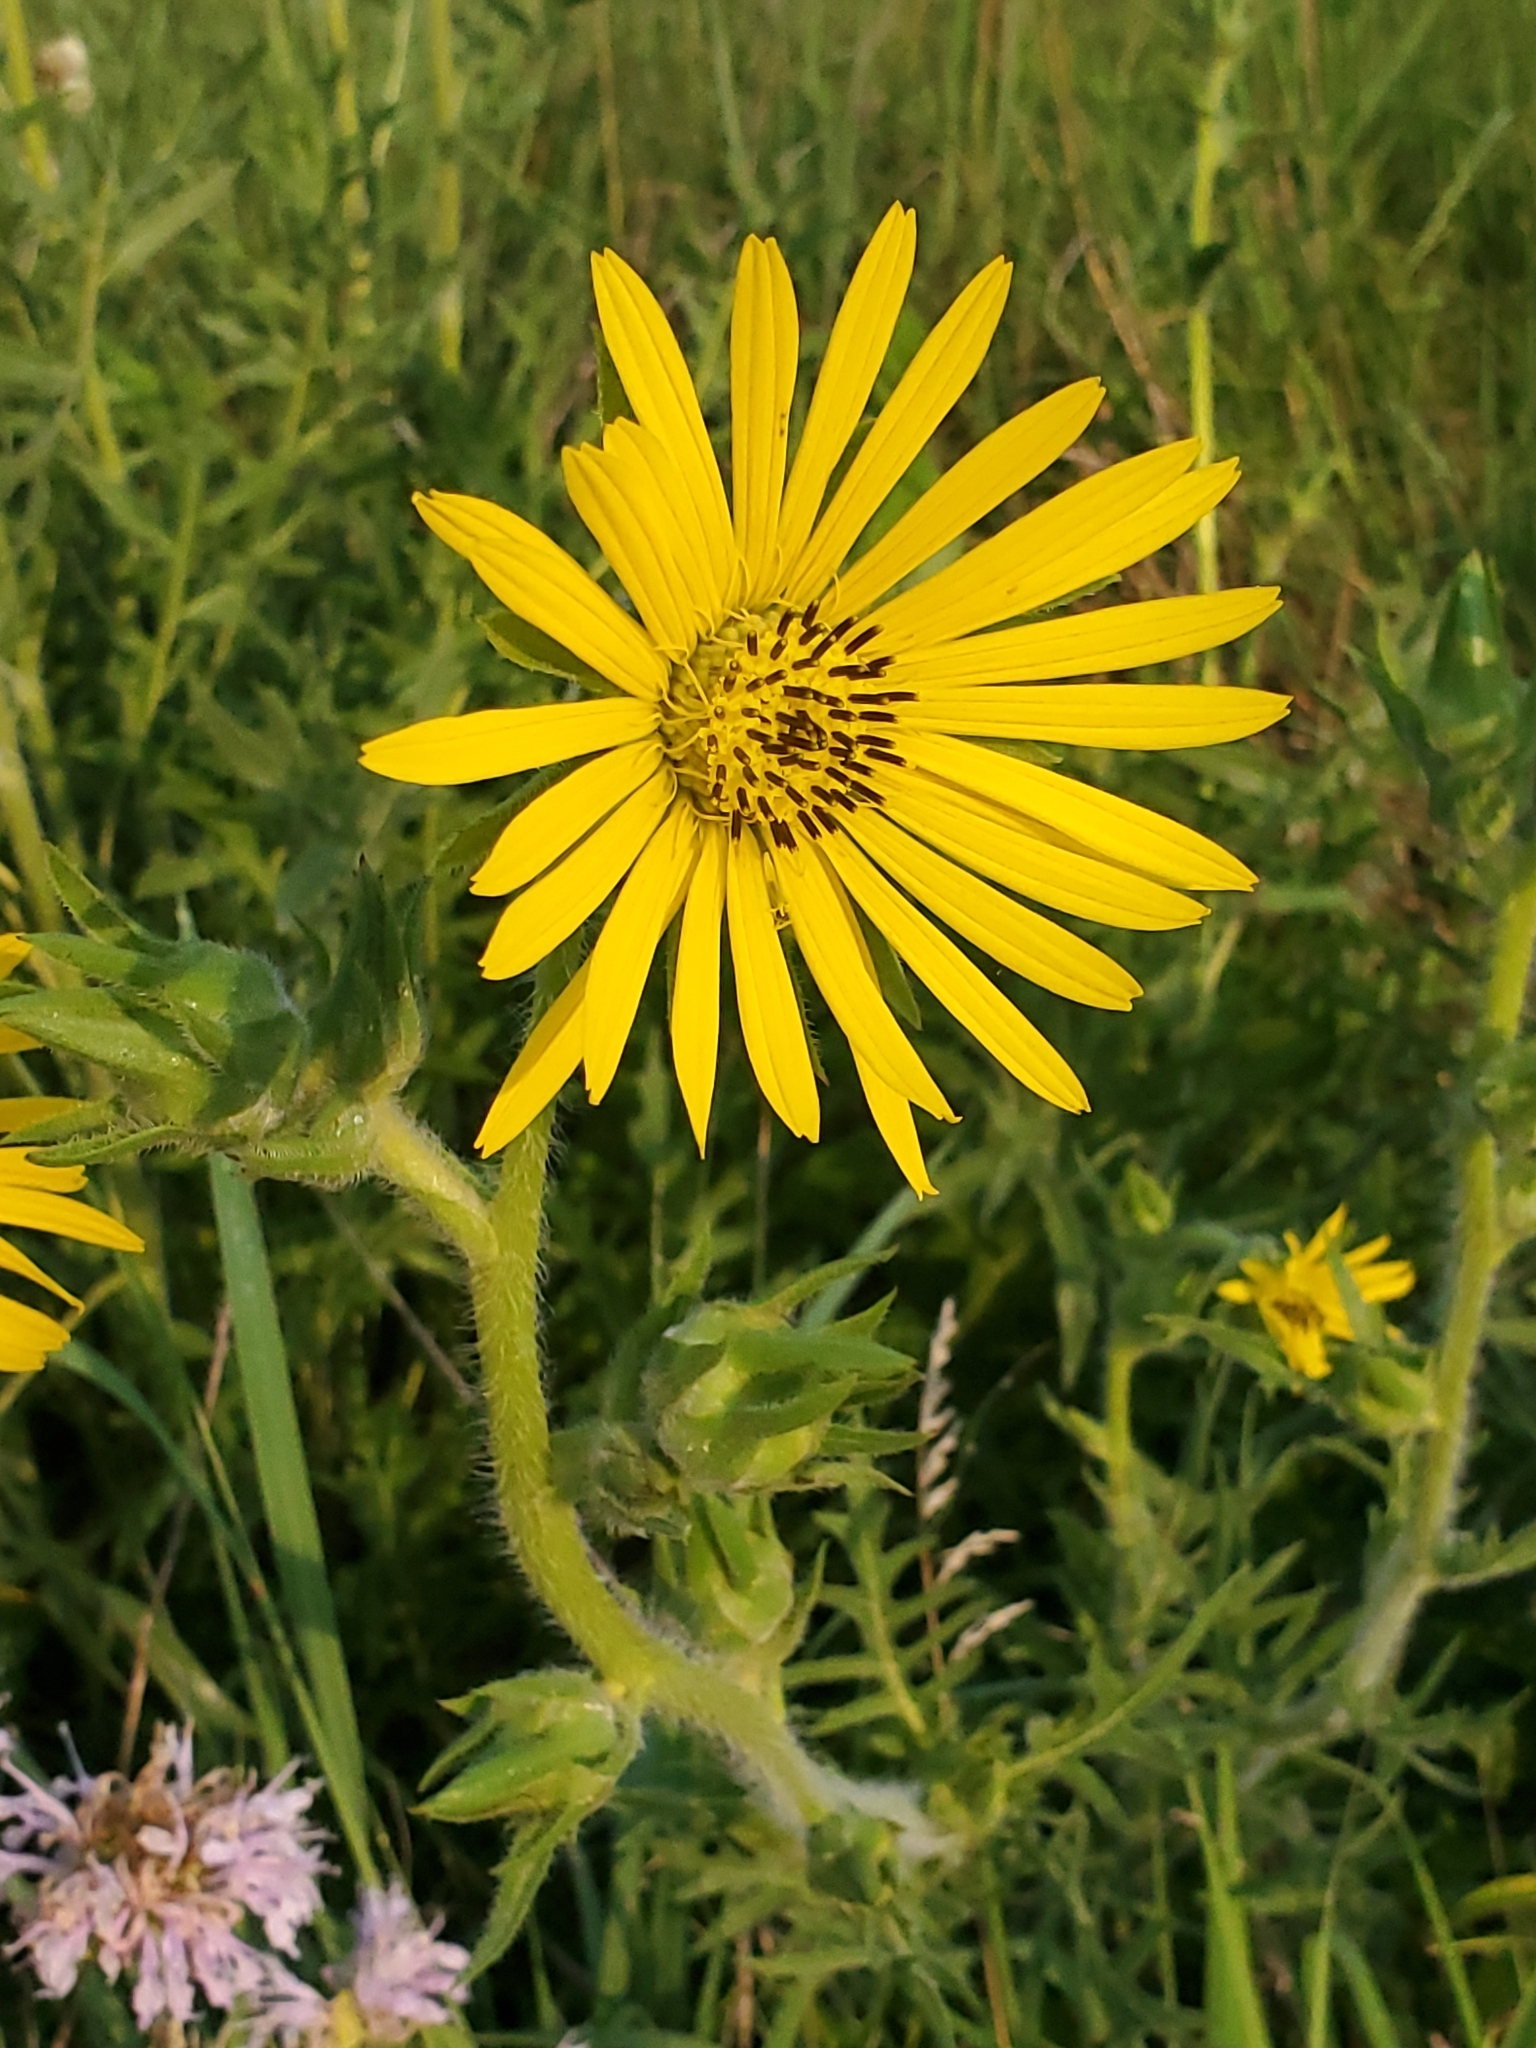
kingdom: Plantae
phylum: Tracheophyta
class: Magnoliopsida
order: Asterales
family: Asteraceae
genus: Silphium
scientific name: Silphium laciniatum
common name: Polarplant
